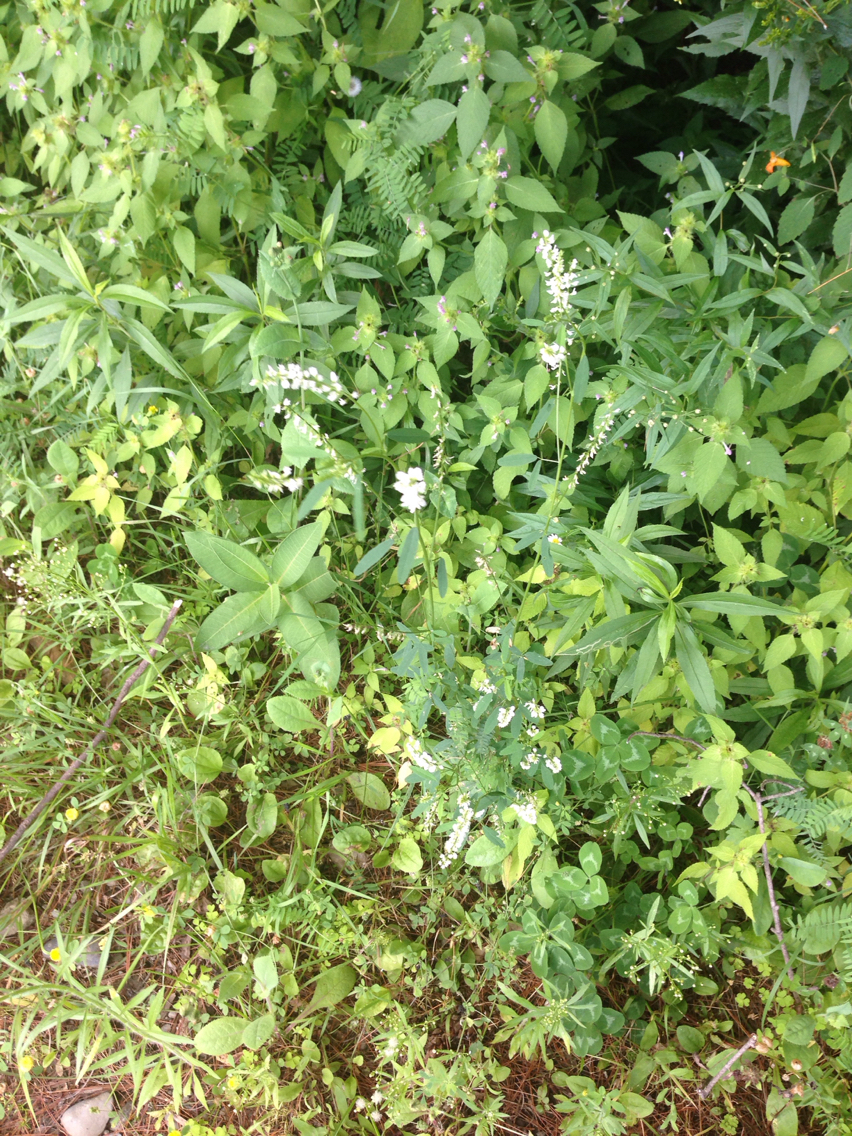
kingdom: Plantae
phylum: Tracheophyta
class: Magnoliopsida
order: Fabales
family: Fabaceae
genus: Melilotus
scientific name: Melilotus albus
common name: White melilot
